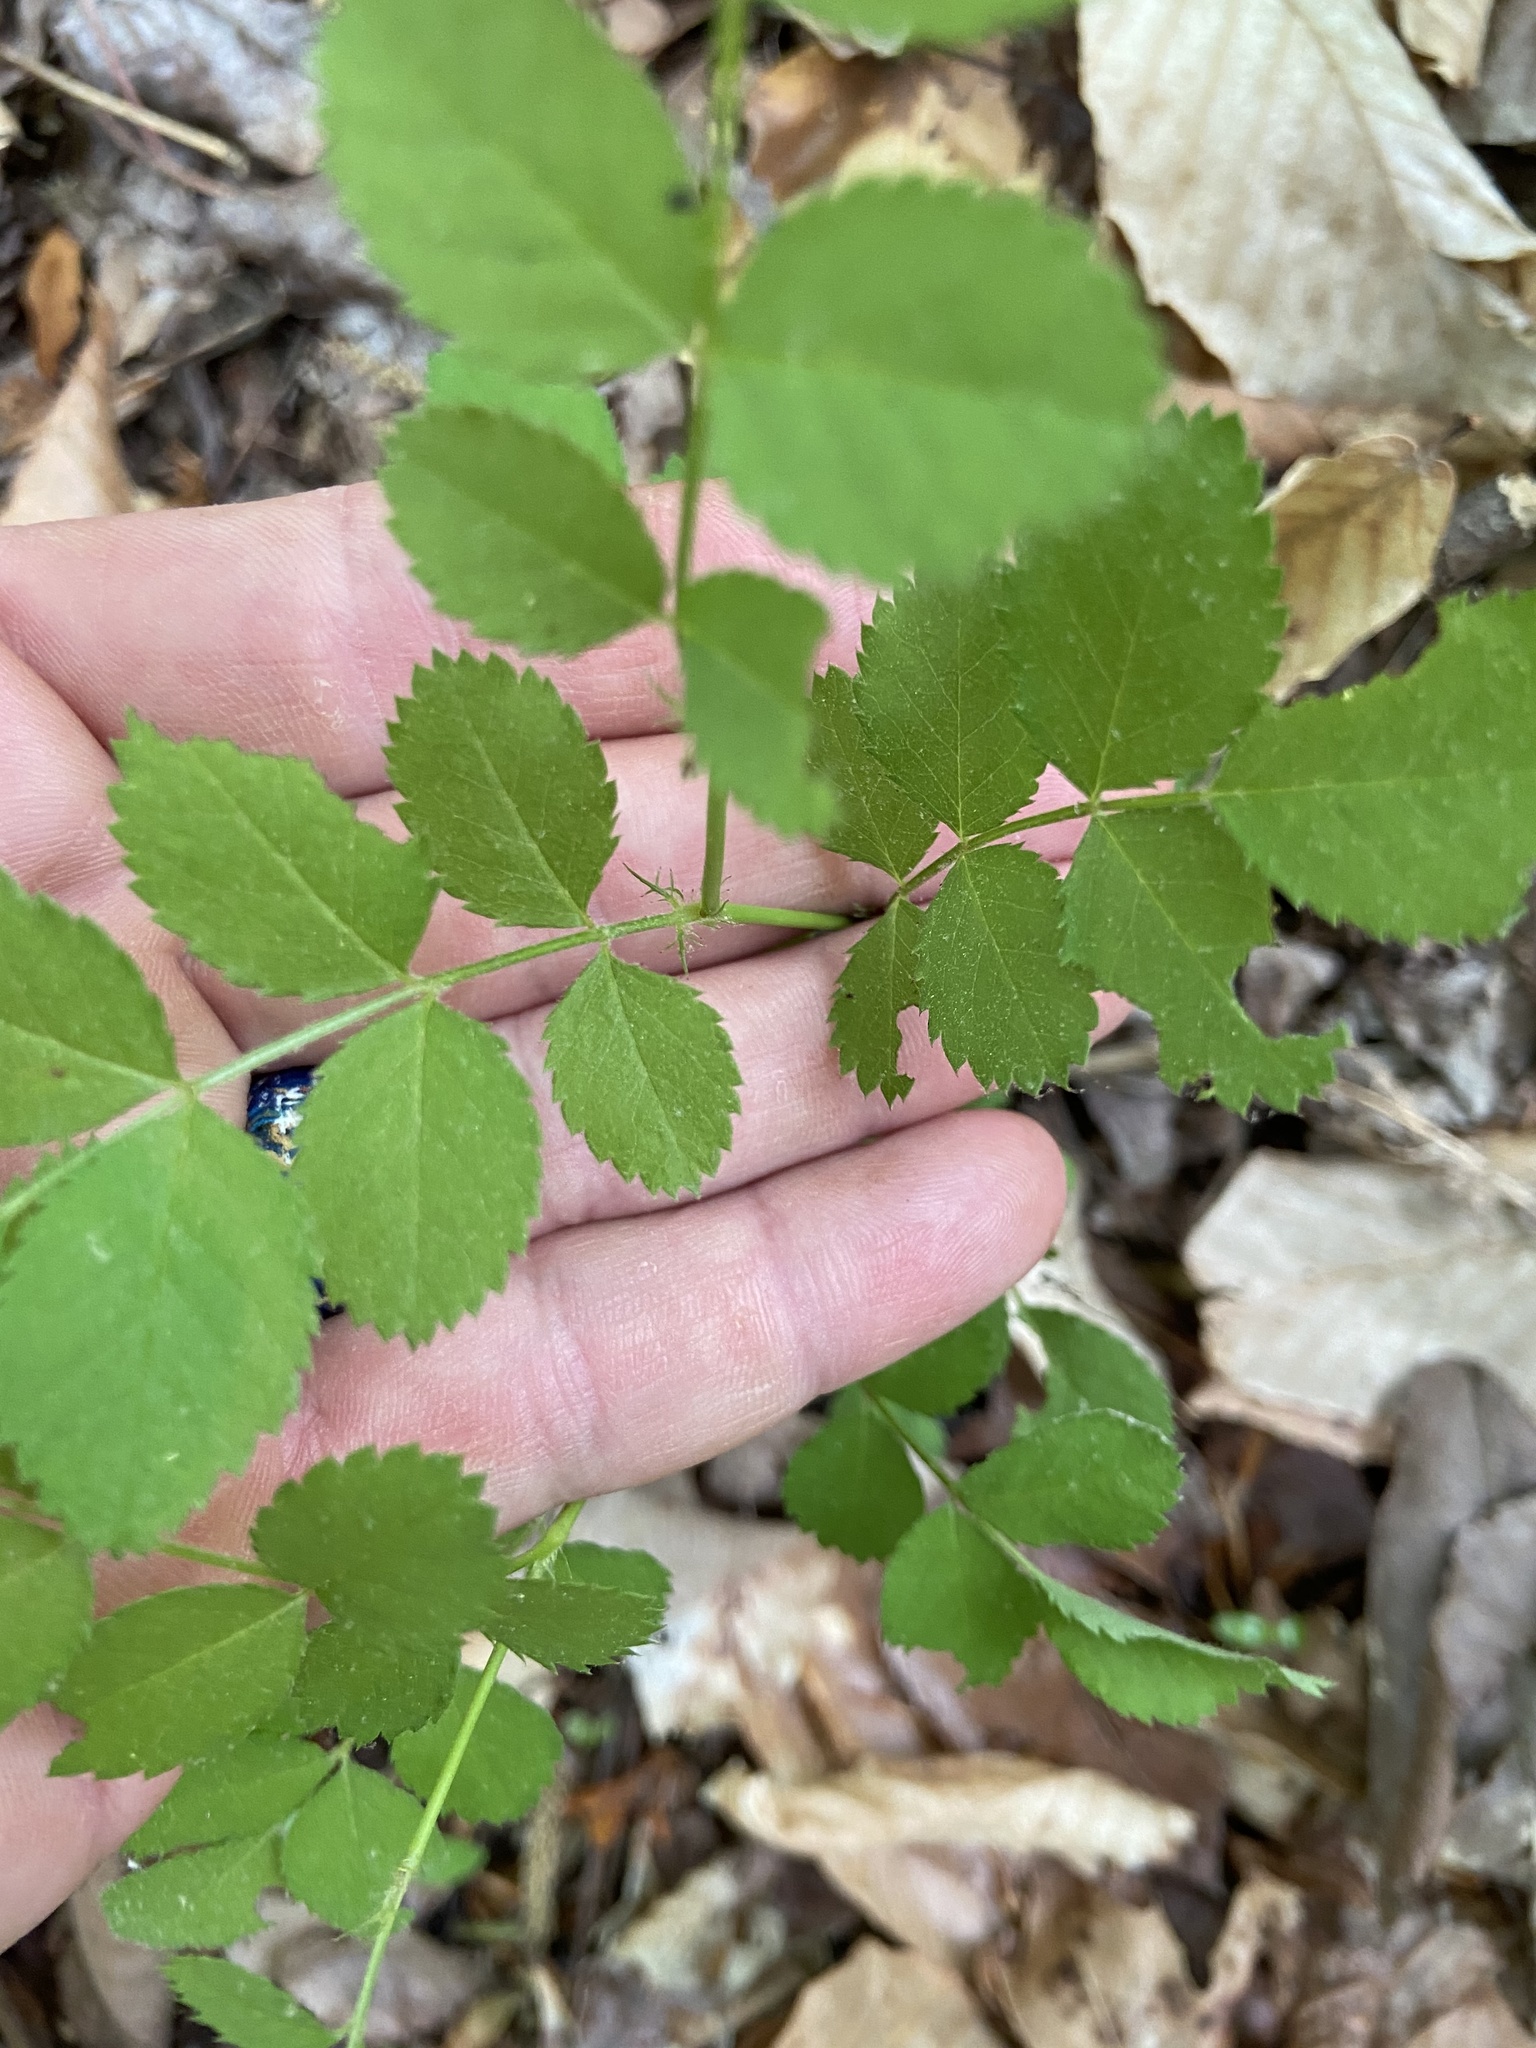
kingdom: Plantae
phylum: Tracheophyta
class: Magnoliopsida
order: Rosales
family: Rosaceae
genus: Rosa
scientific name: Rosa multiflora
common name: Multiflora rose
